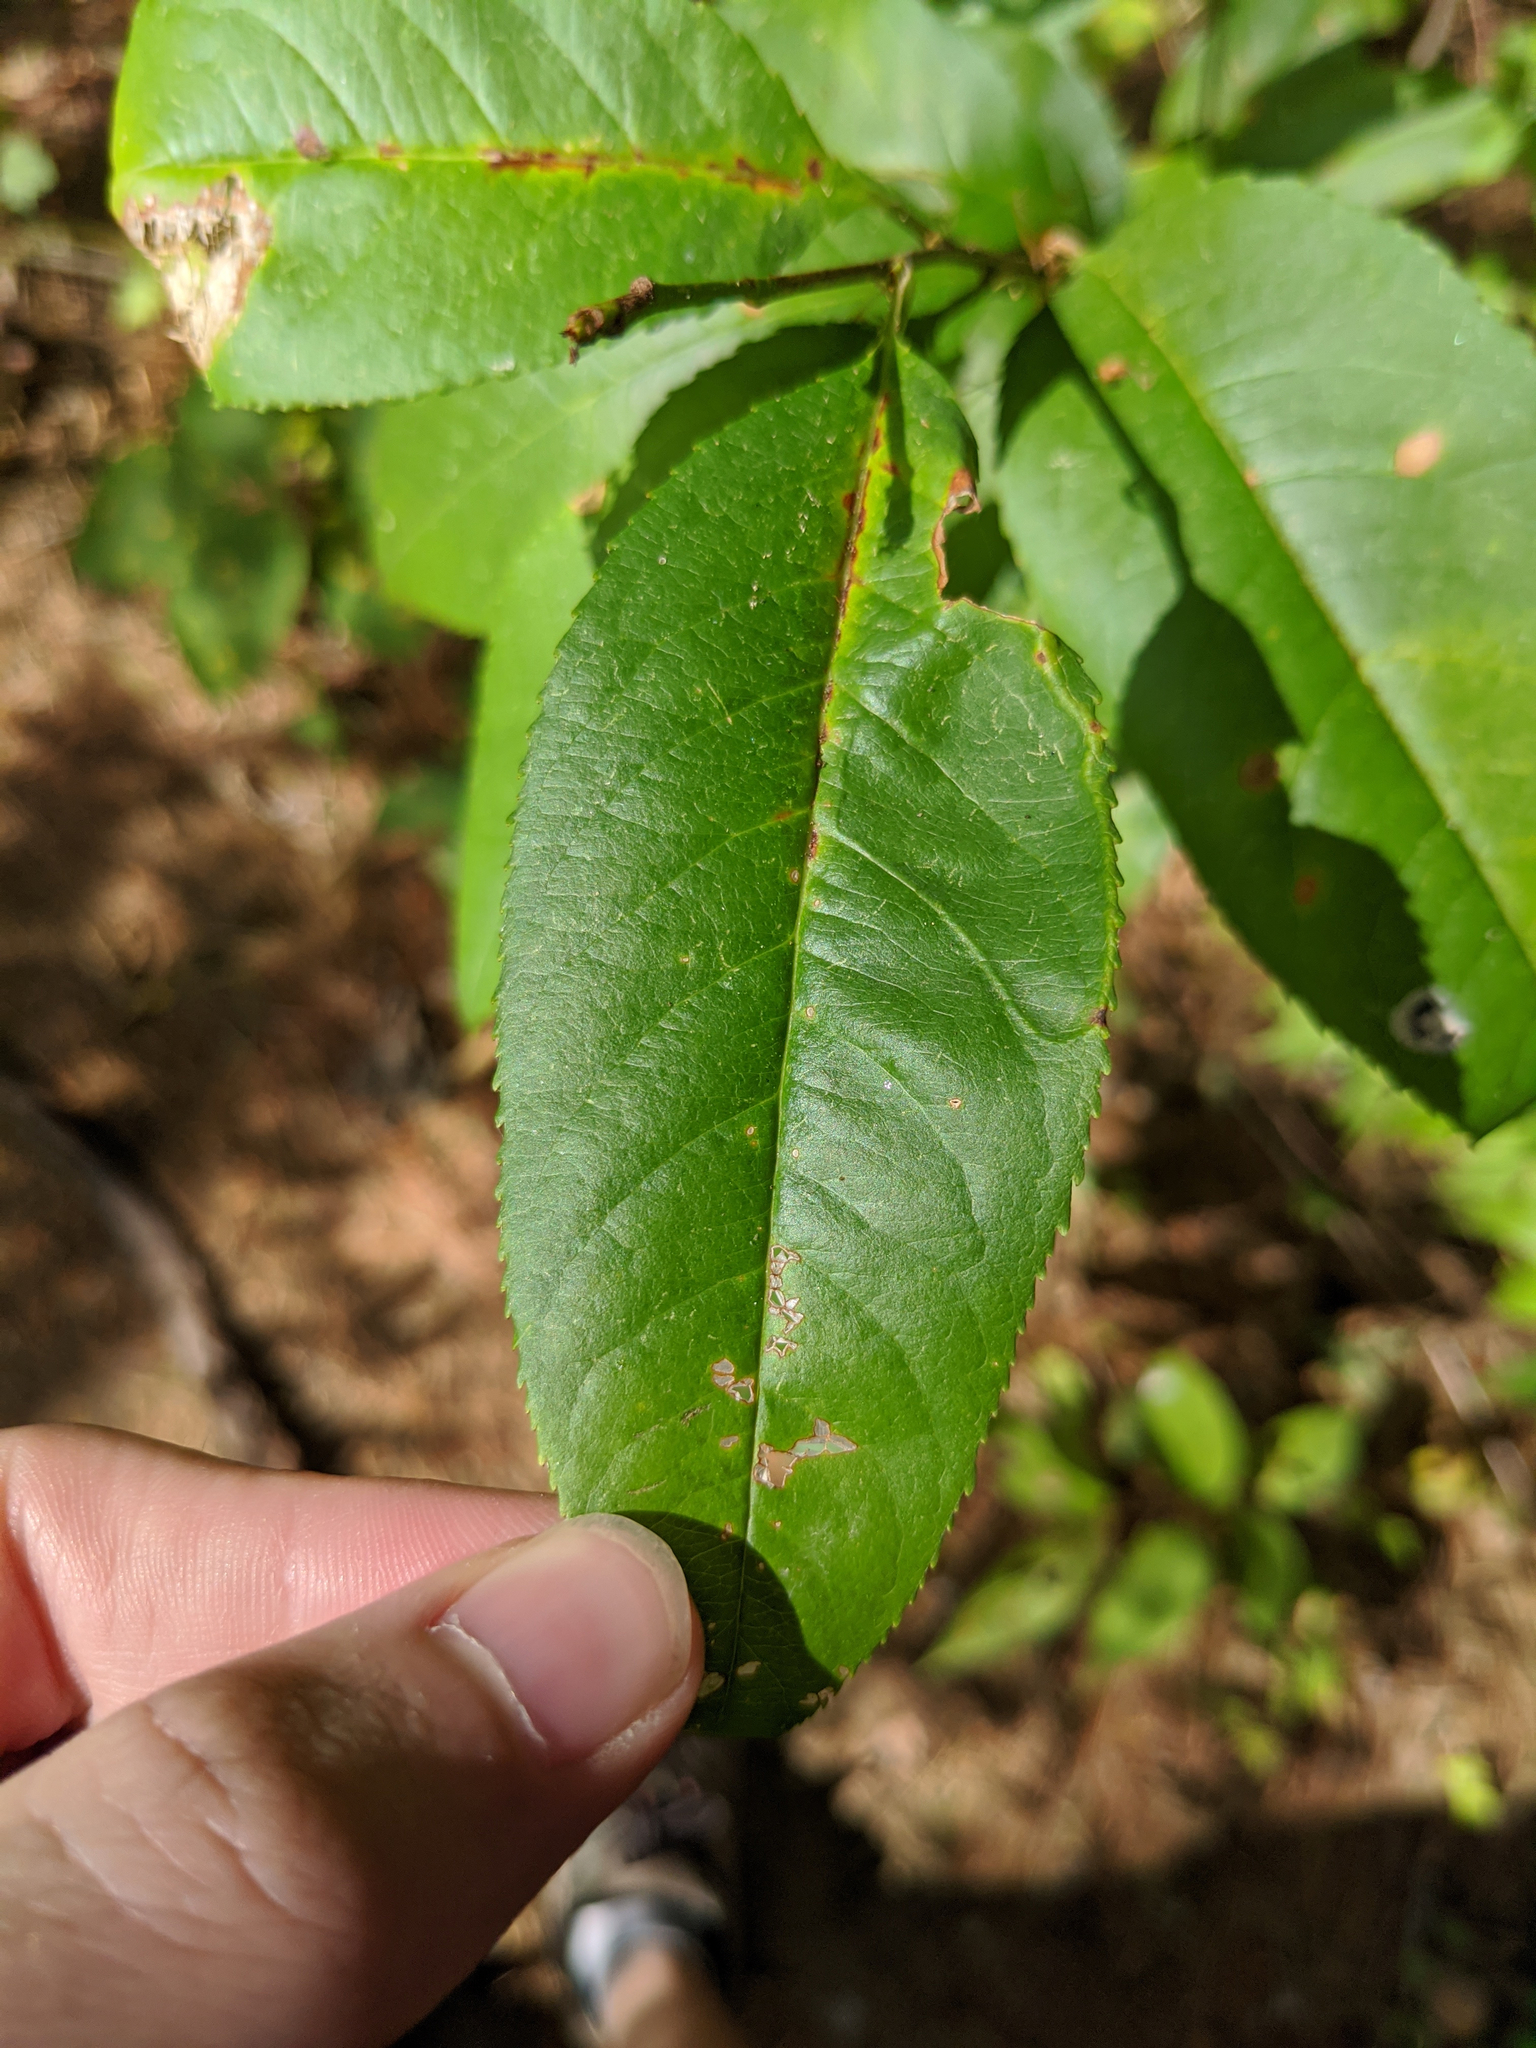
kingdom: Plantae
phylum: Tracheophyta
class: Magnoliopsida
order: Rosales
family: Rosaceae
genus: Prunus
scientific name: Prunus serotina
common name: Black cherry
